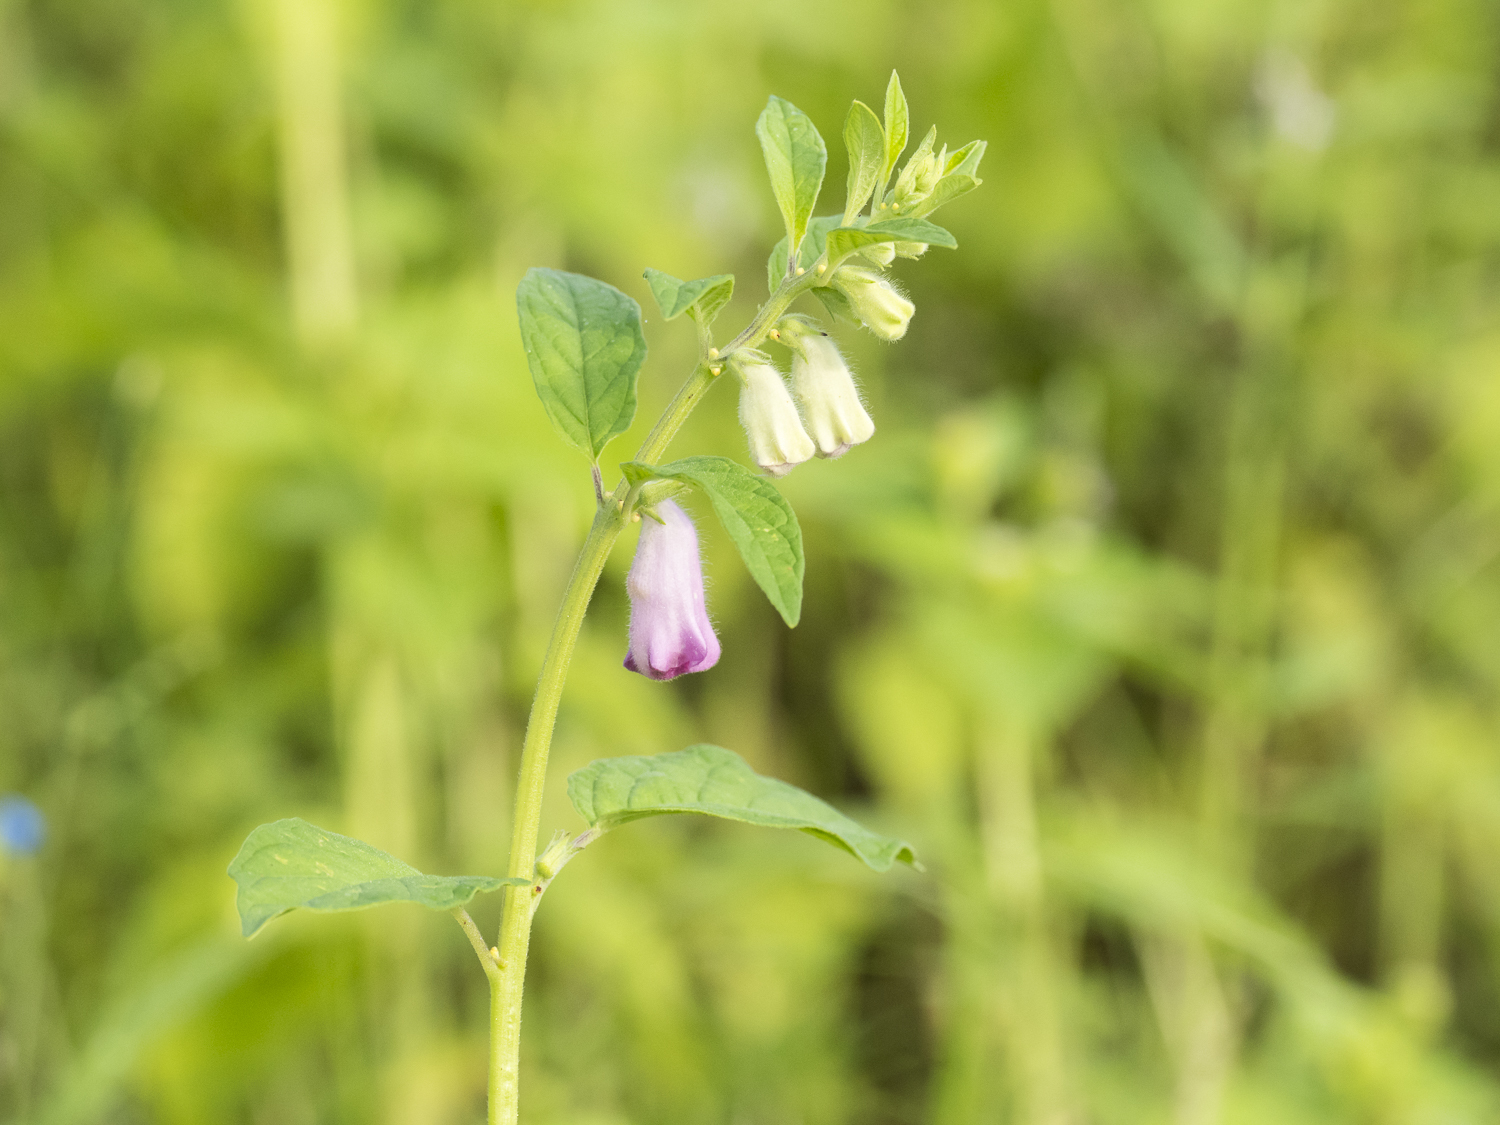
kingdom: Plantae
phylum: Tracheophyta
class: Magnoliopsida
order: Lamiales
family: Pedaliaceae
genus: Sesamum
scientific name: Sesamum indicum
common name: Sesame
